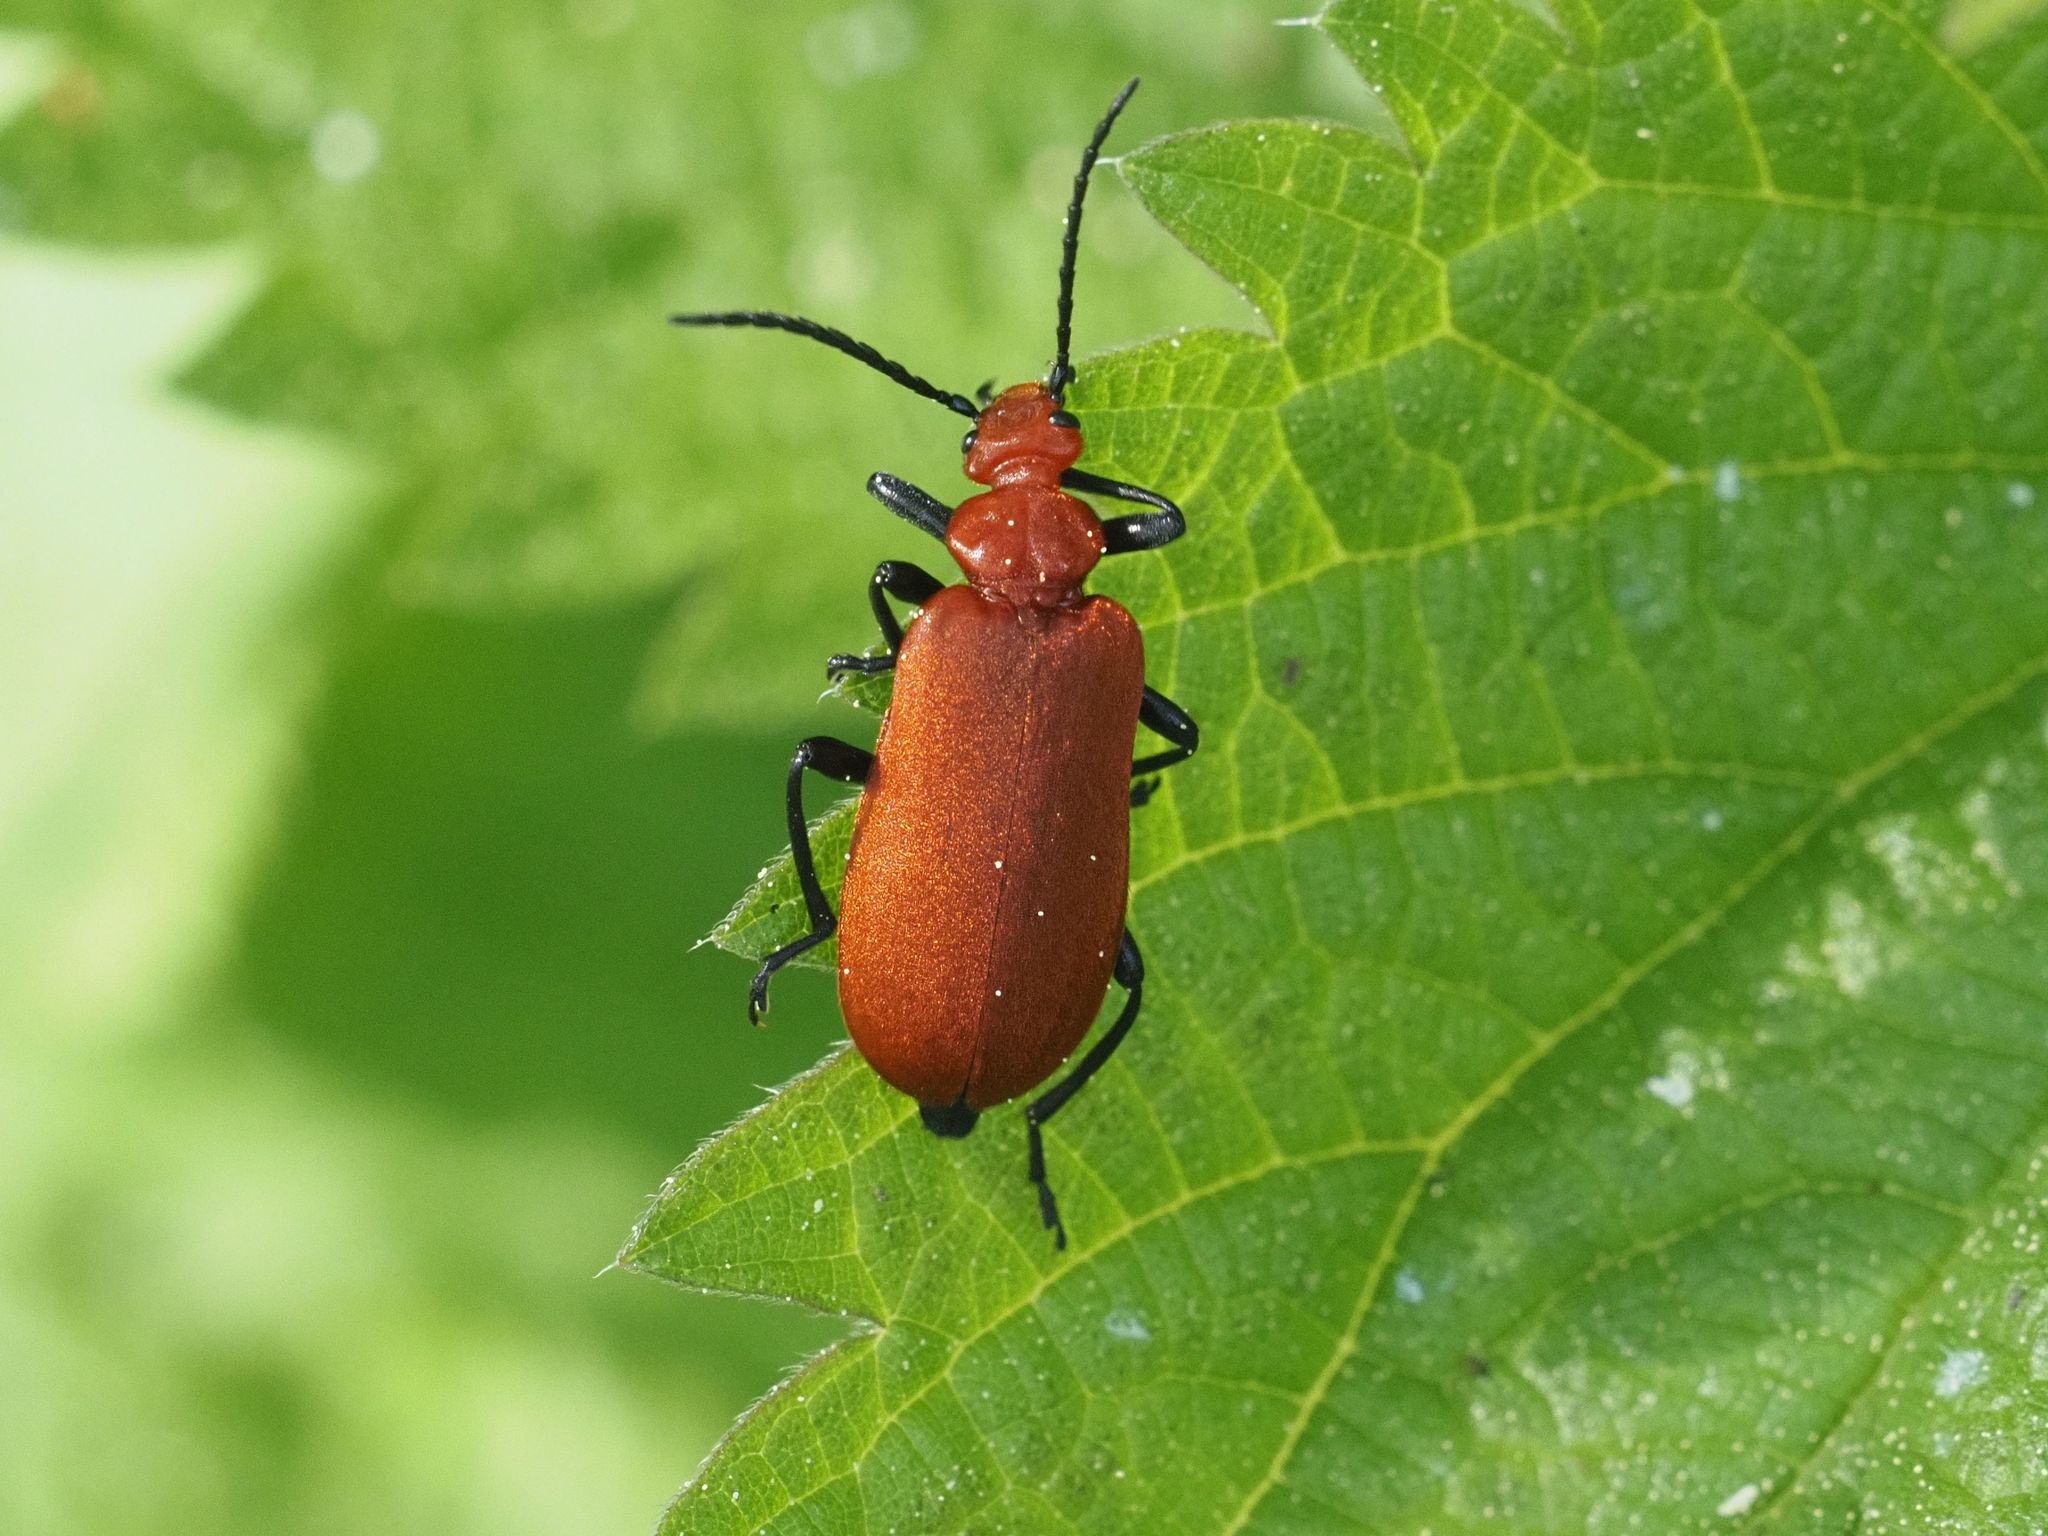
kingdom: Animalia
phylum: Arthropoda
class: Insecta
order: Coleoptera
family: Pyrochroidae
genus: Pyrochroa
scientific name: Pyrochroa serraticornis
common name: Red-headed cardinal beetle
